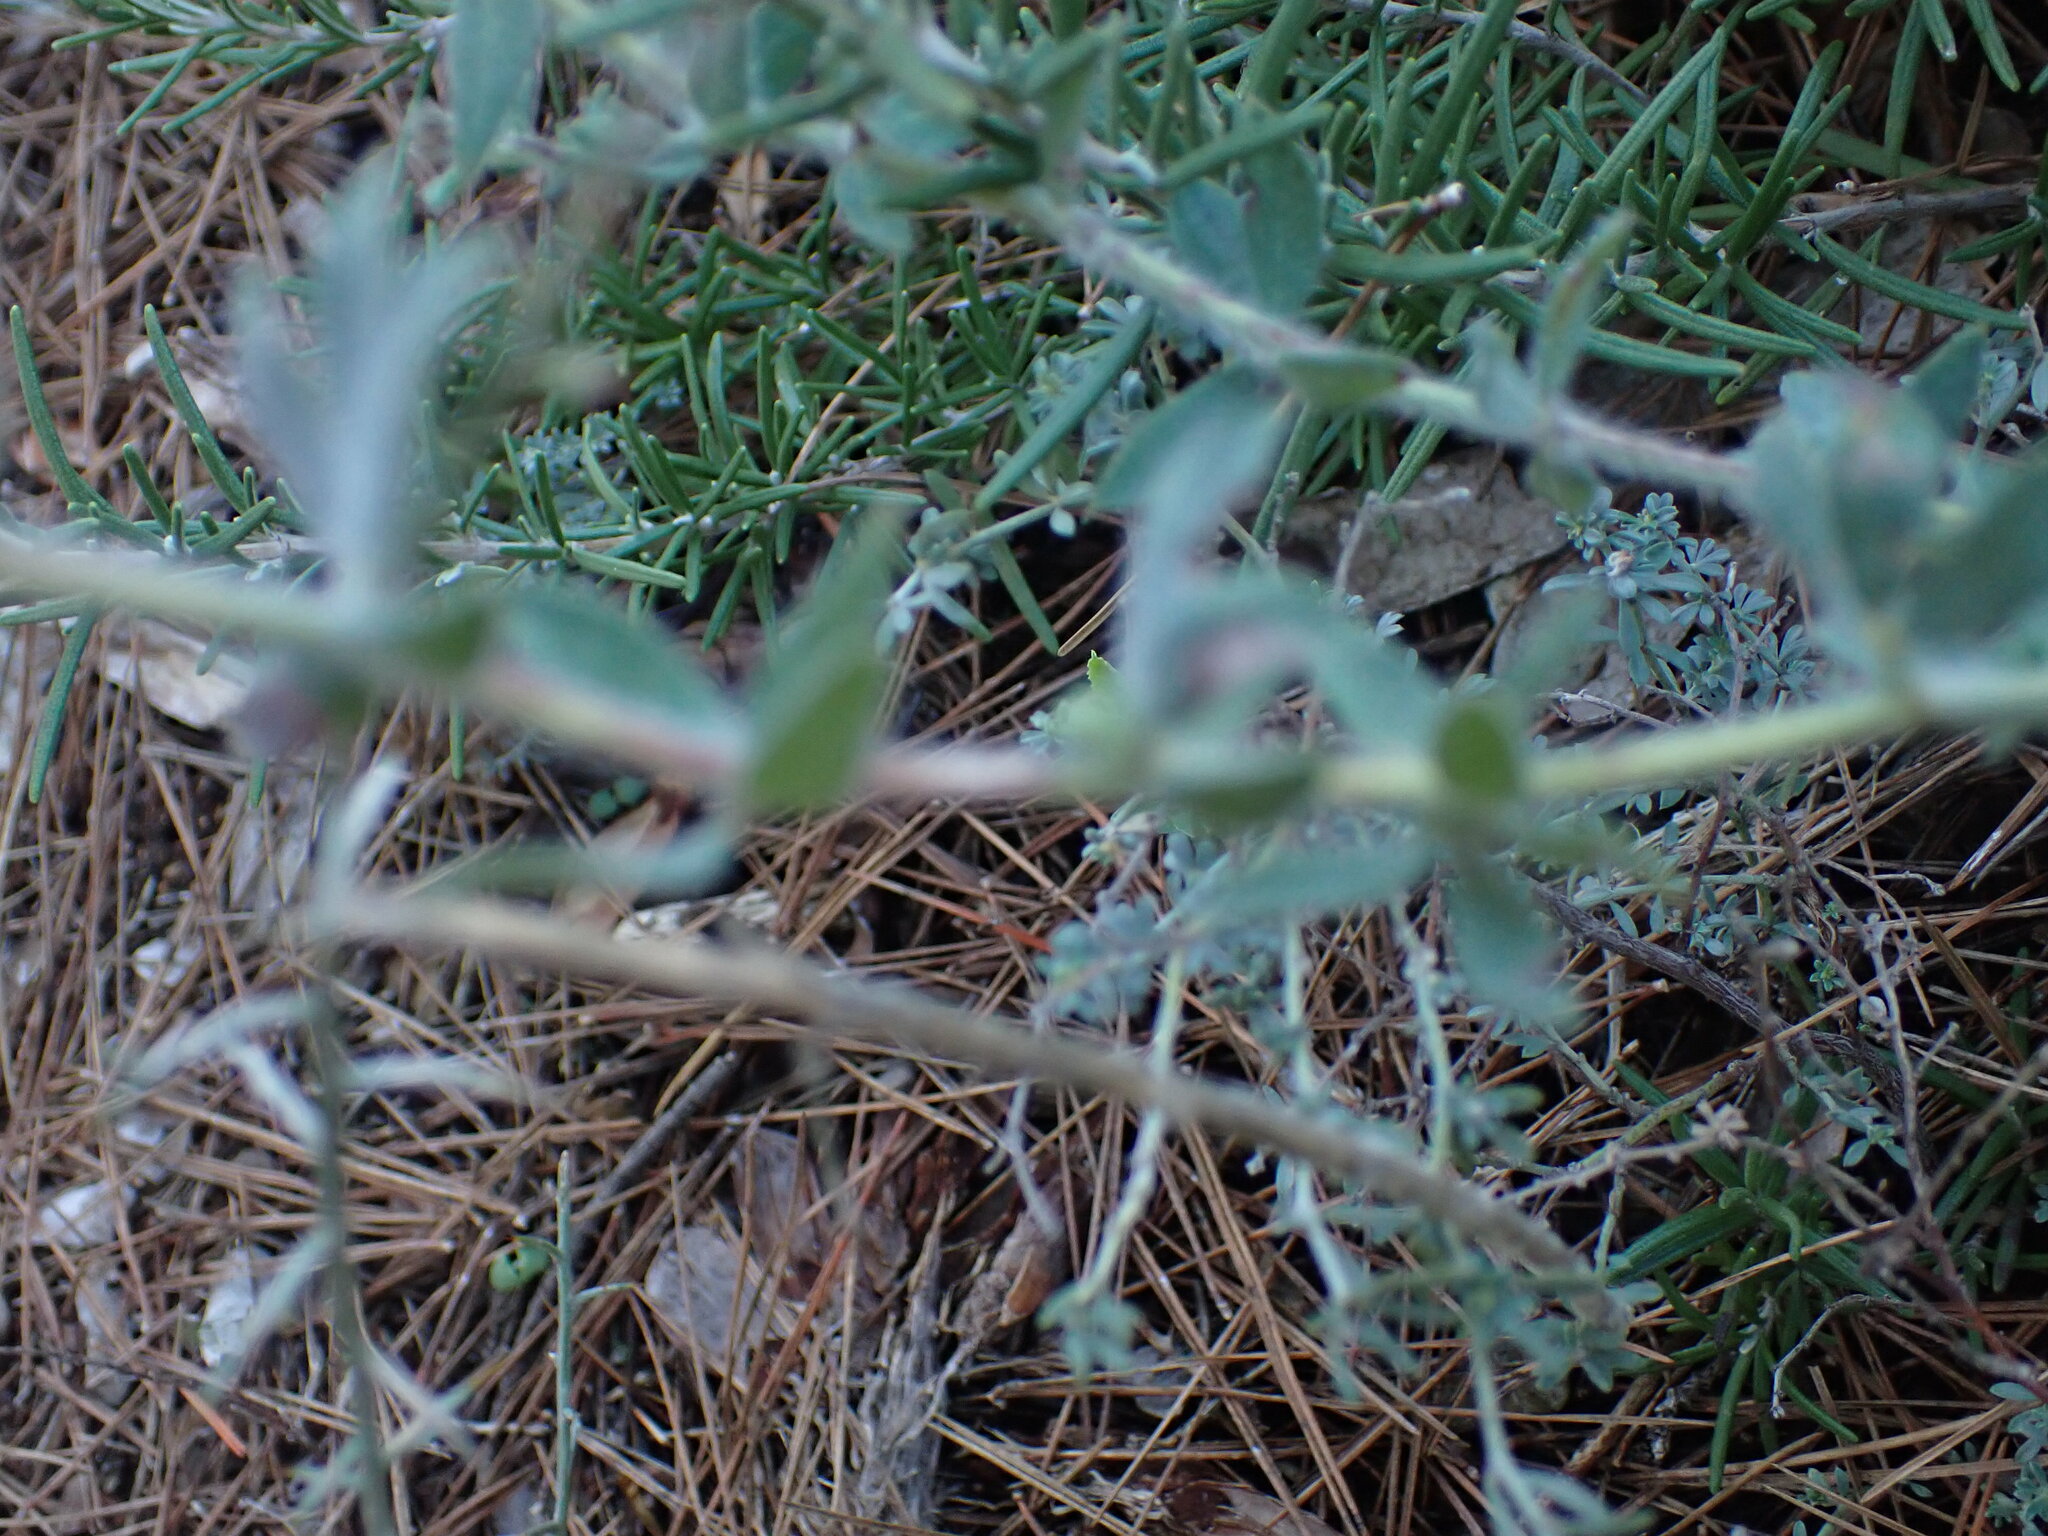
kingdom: Plantae
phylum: Tracheophyta
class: Magnoliopsida
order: Fabales
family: Fabaceae
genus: Lotus
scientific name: Lotus hirsutus
